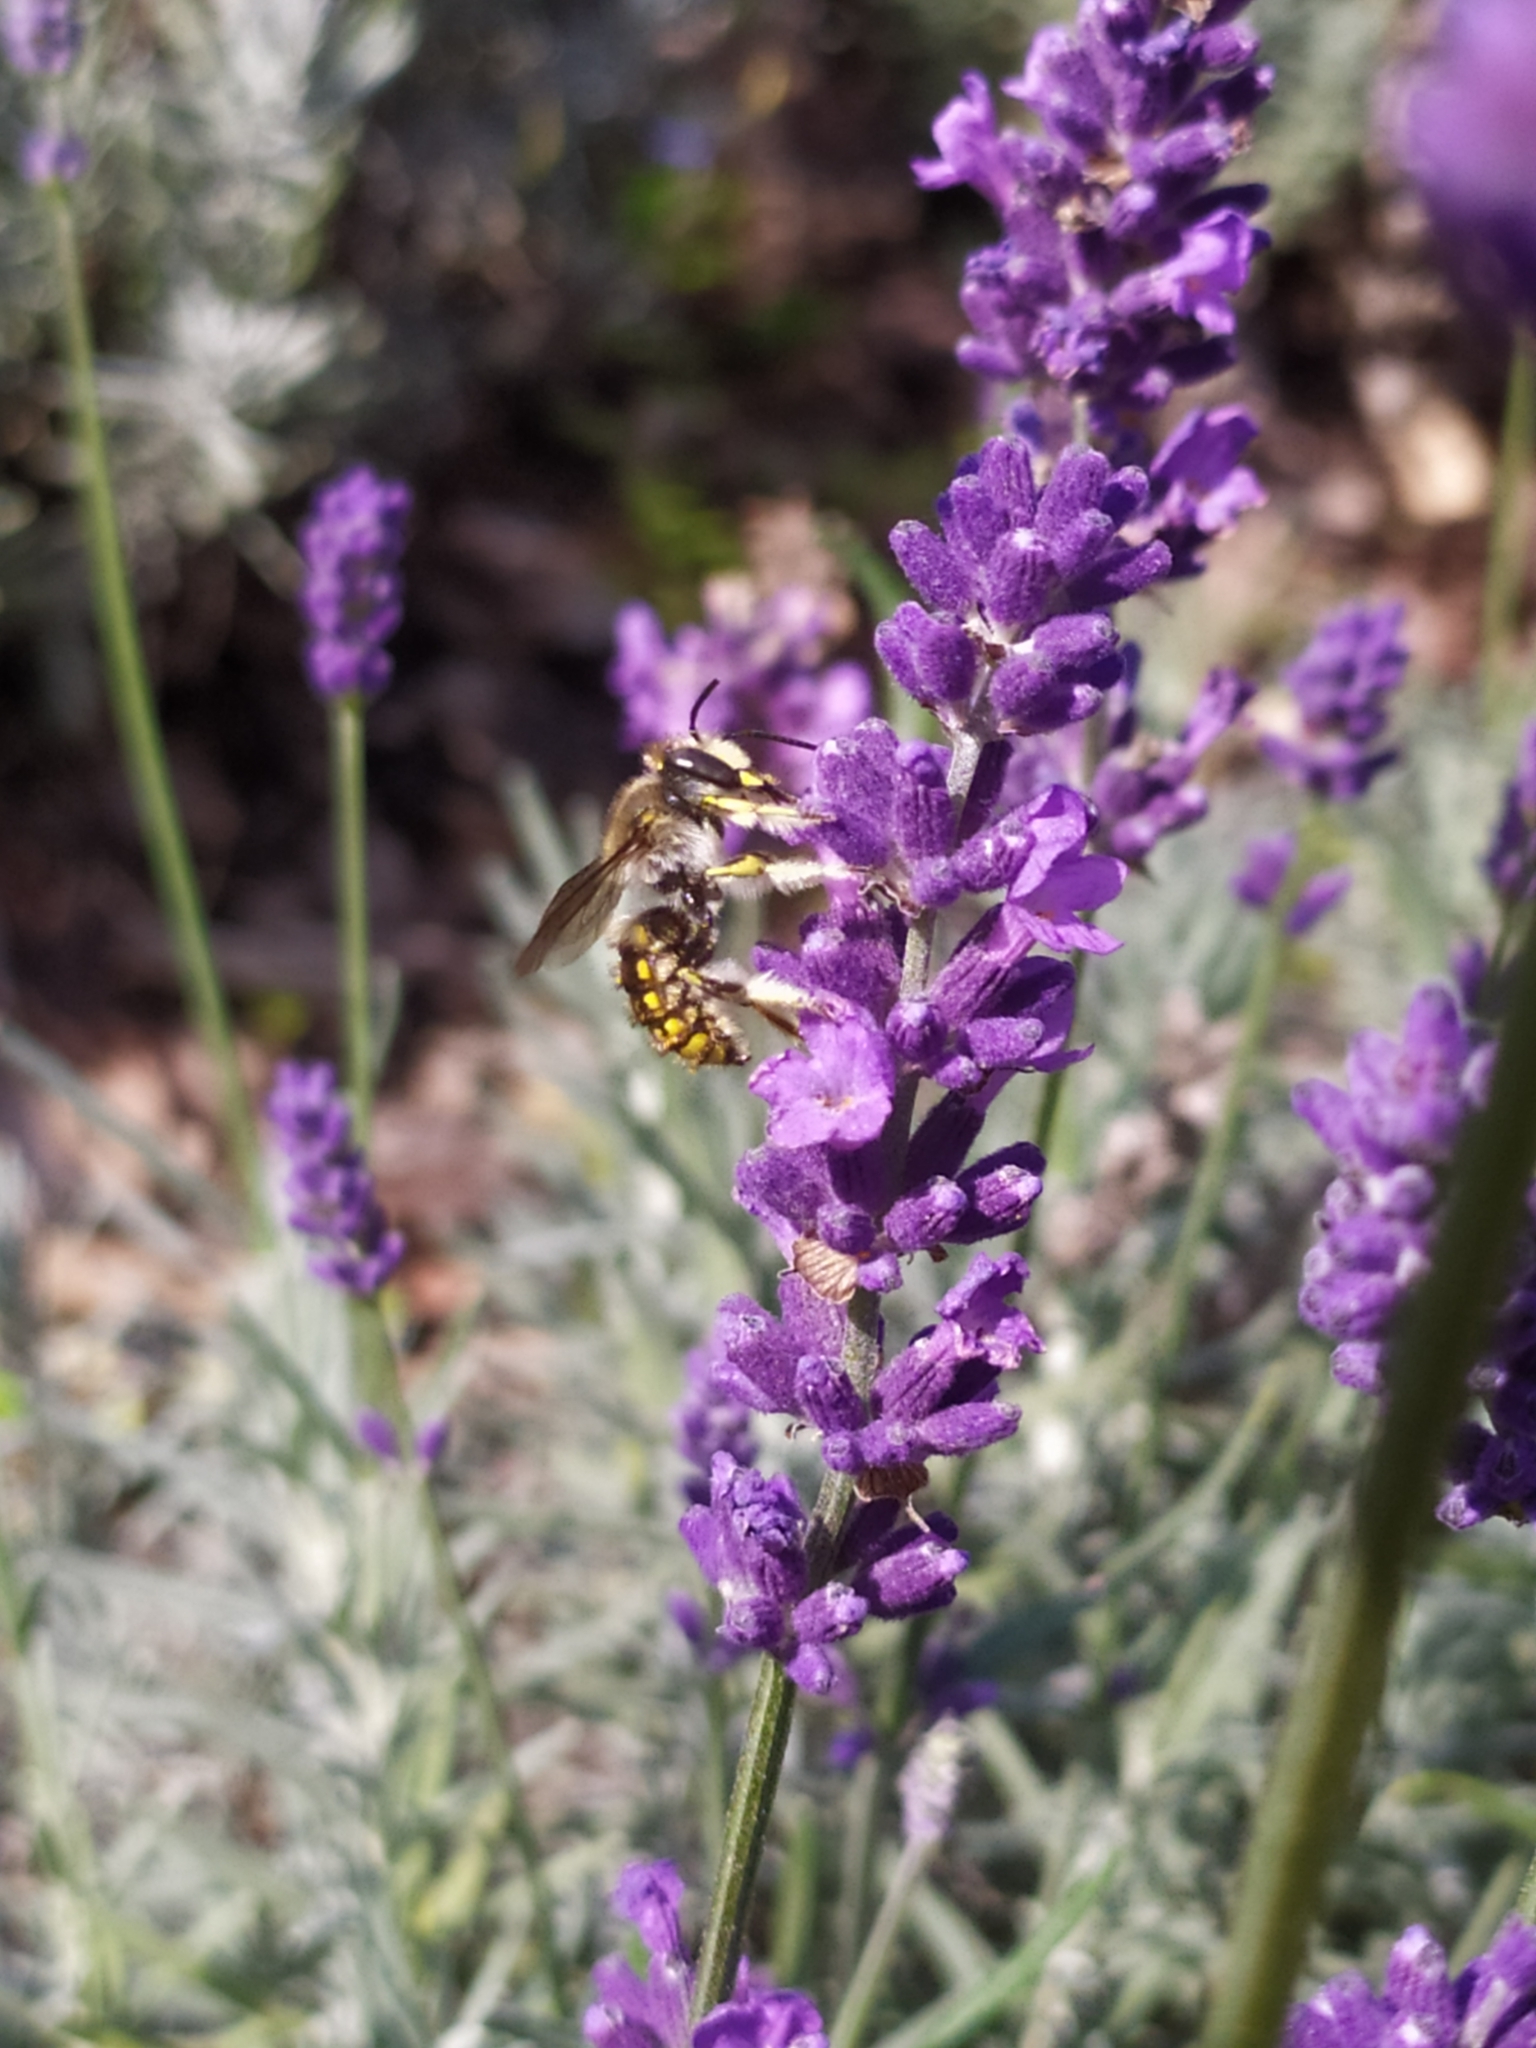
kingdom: Animalia
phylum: Arthropoda
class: Insecta
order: Hymenoptera
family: Megachilidae
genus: Anthidium
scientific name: Anthidium manicatum
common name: Wool carder bee
